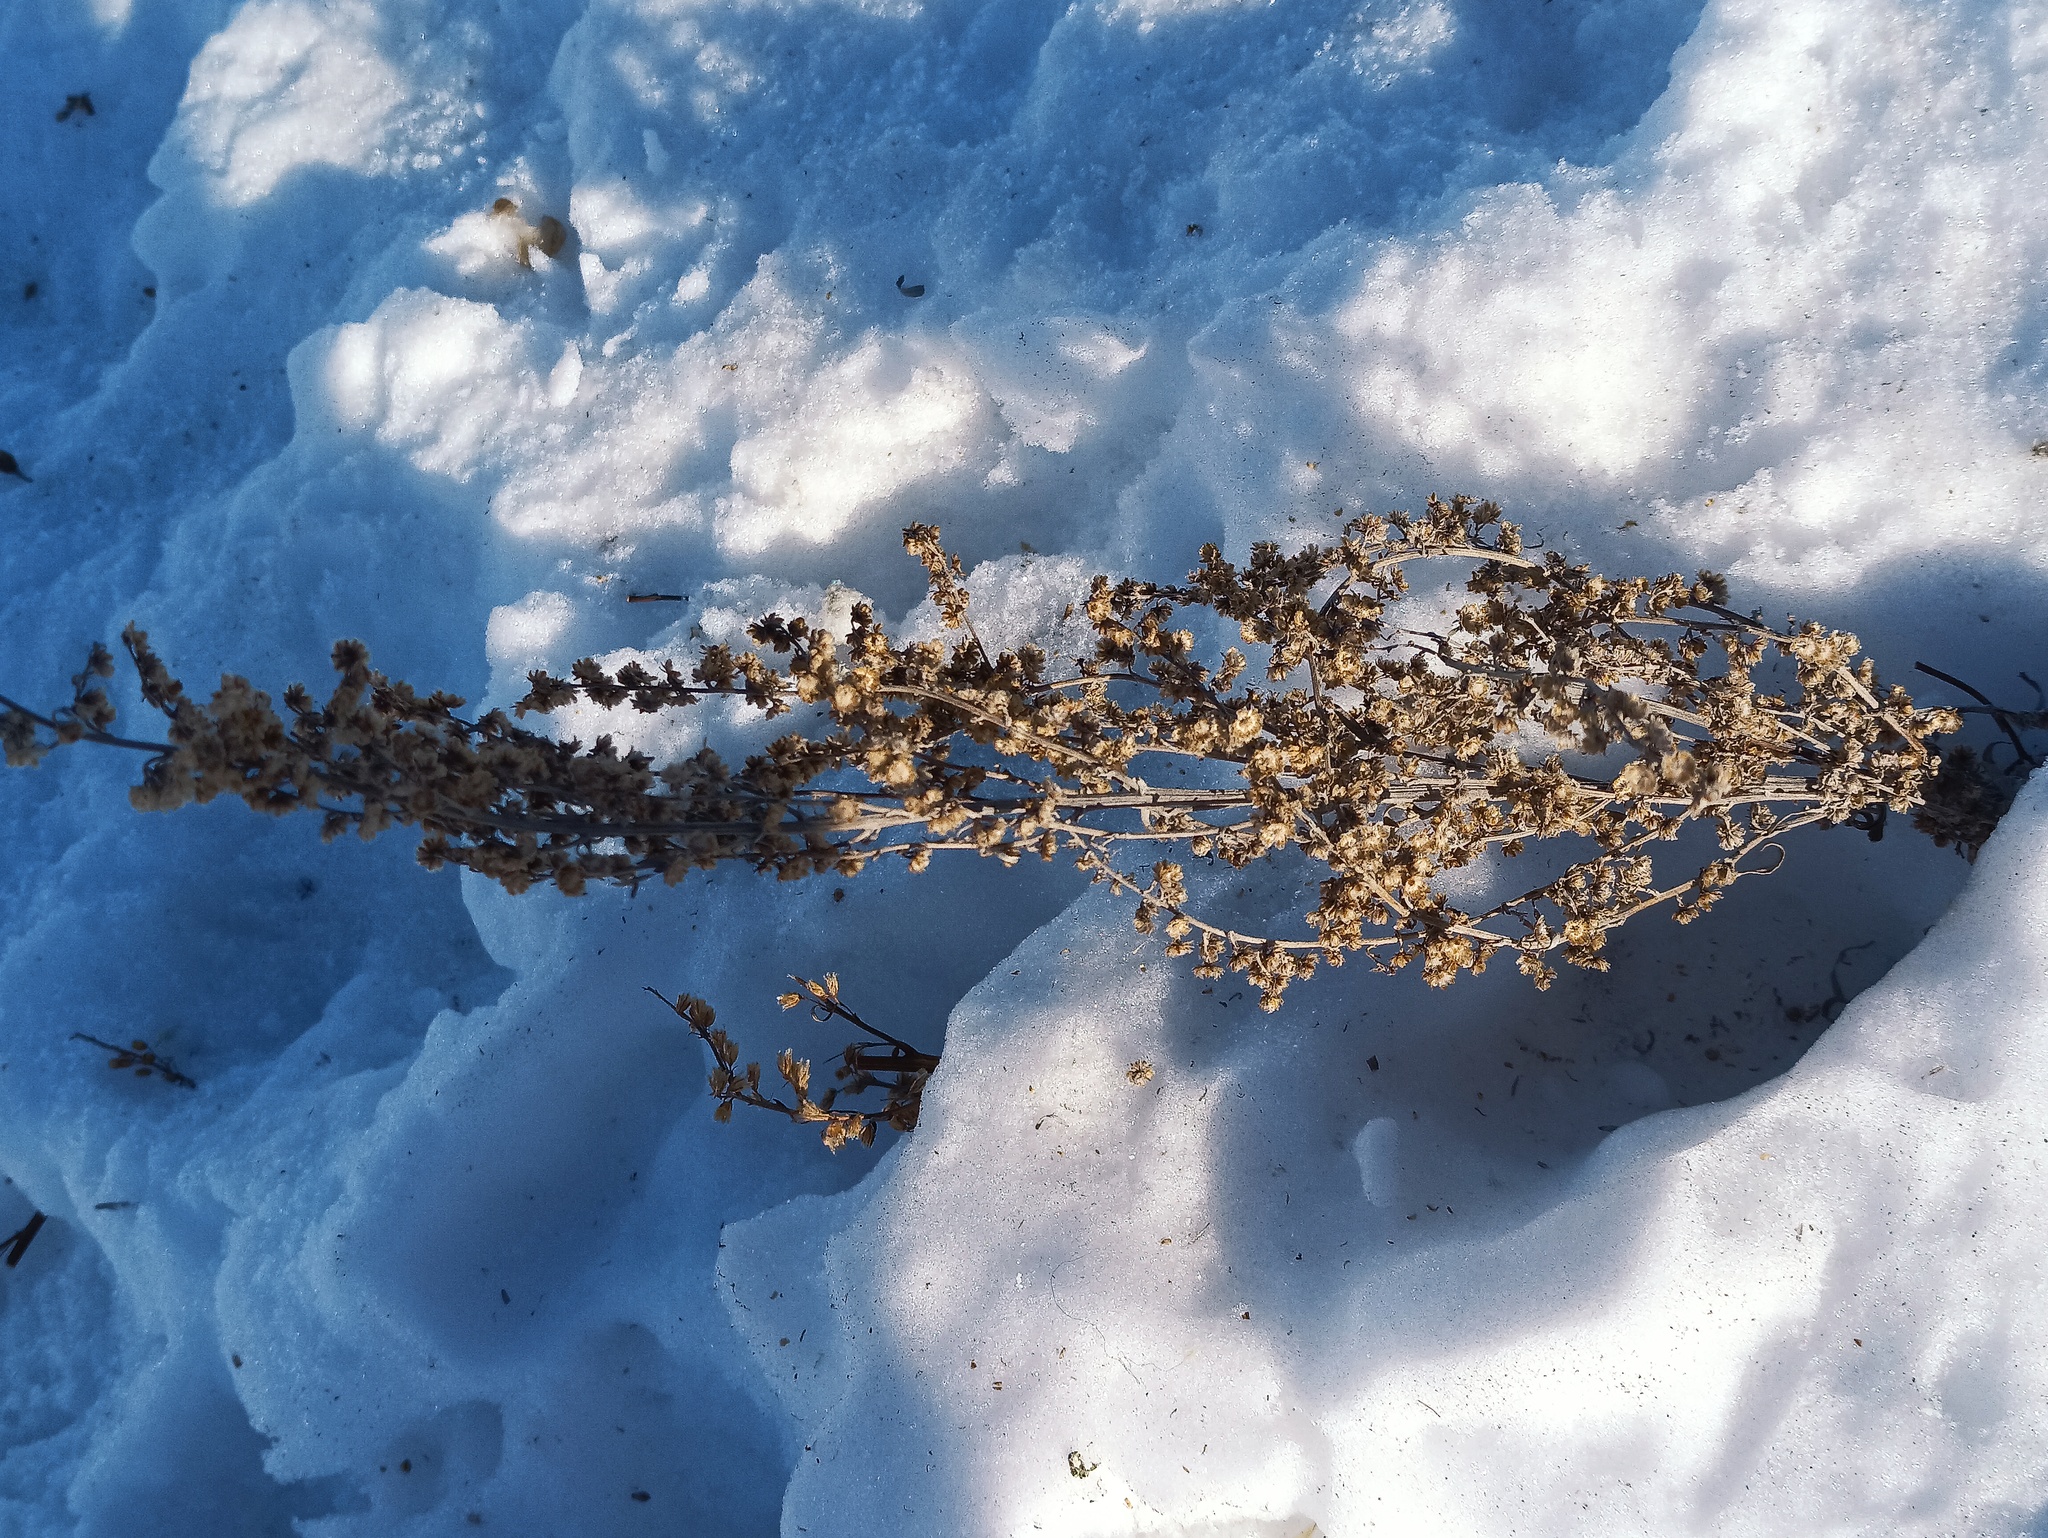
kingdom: Plantae
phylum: Tracheophyta
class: Magnoliopsida
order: Asterales
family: Asteraceae
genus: Artemisia
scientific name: Artemisia vulgaris
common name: Mugwort
